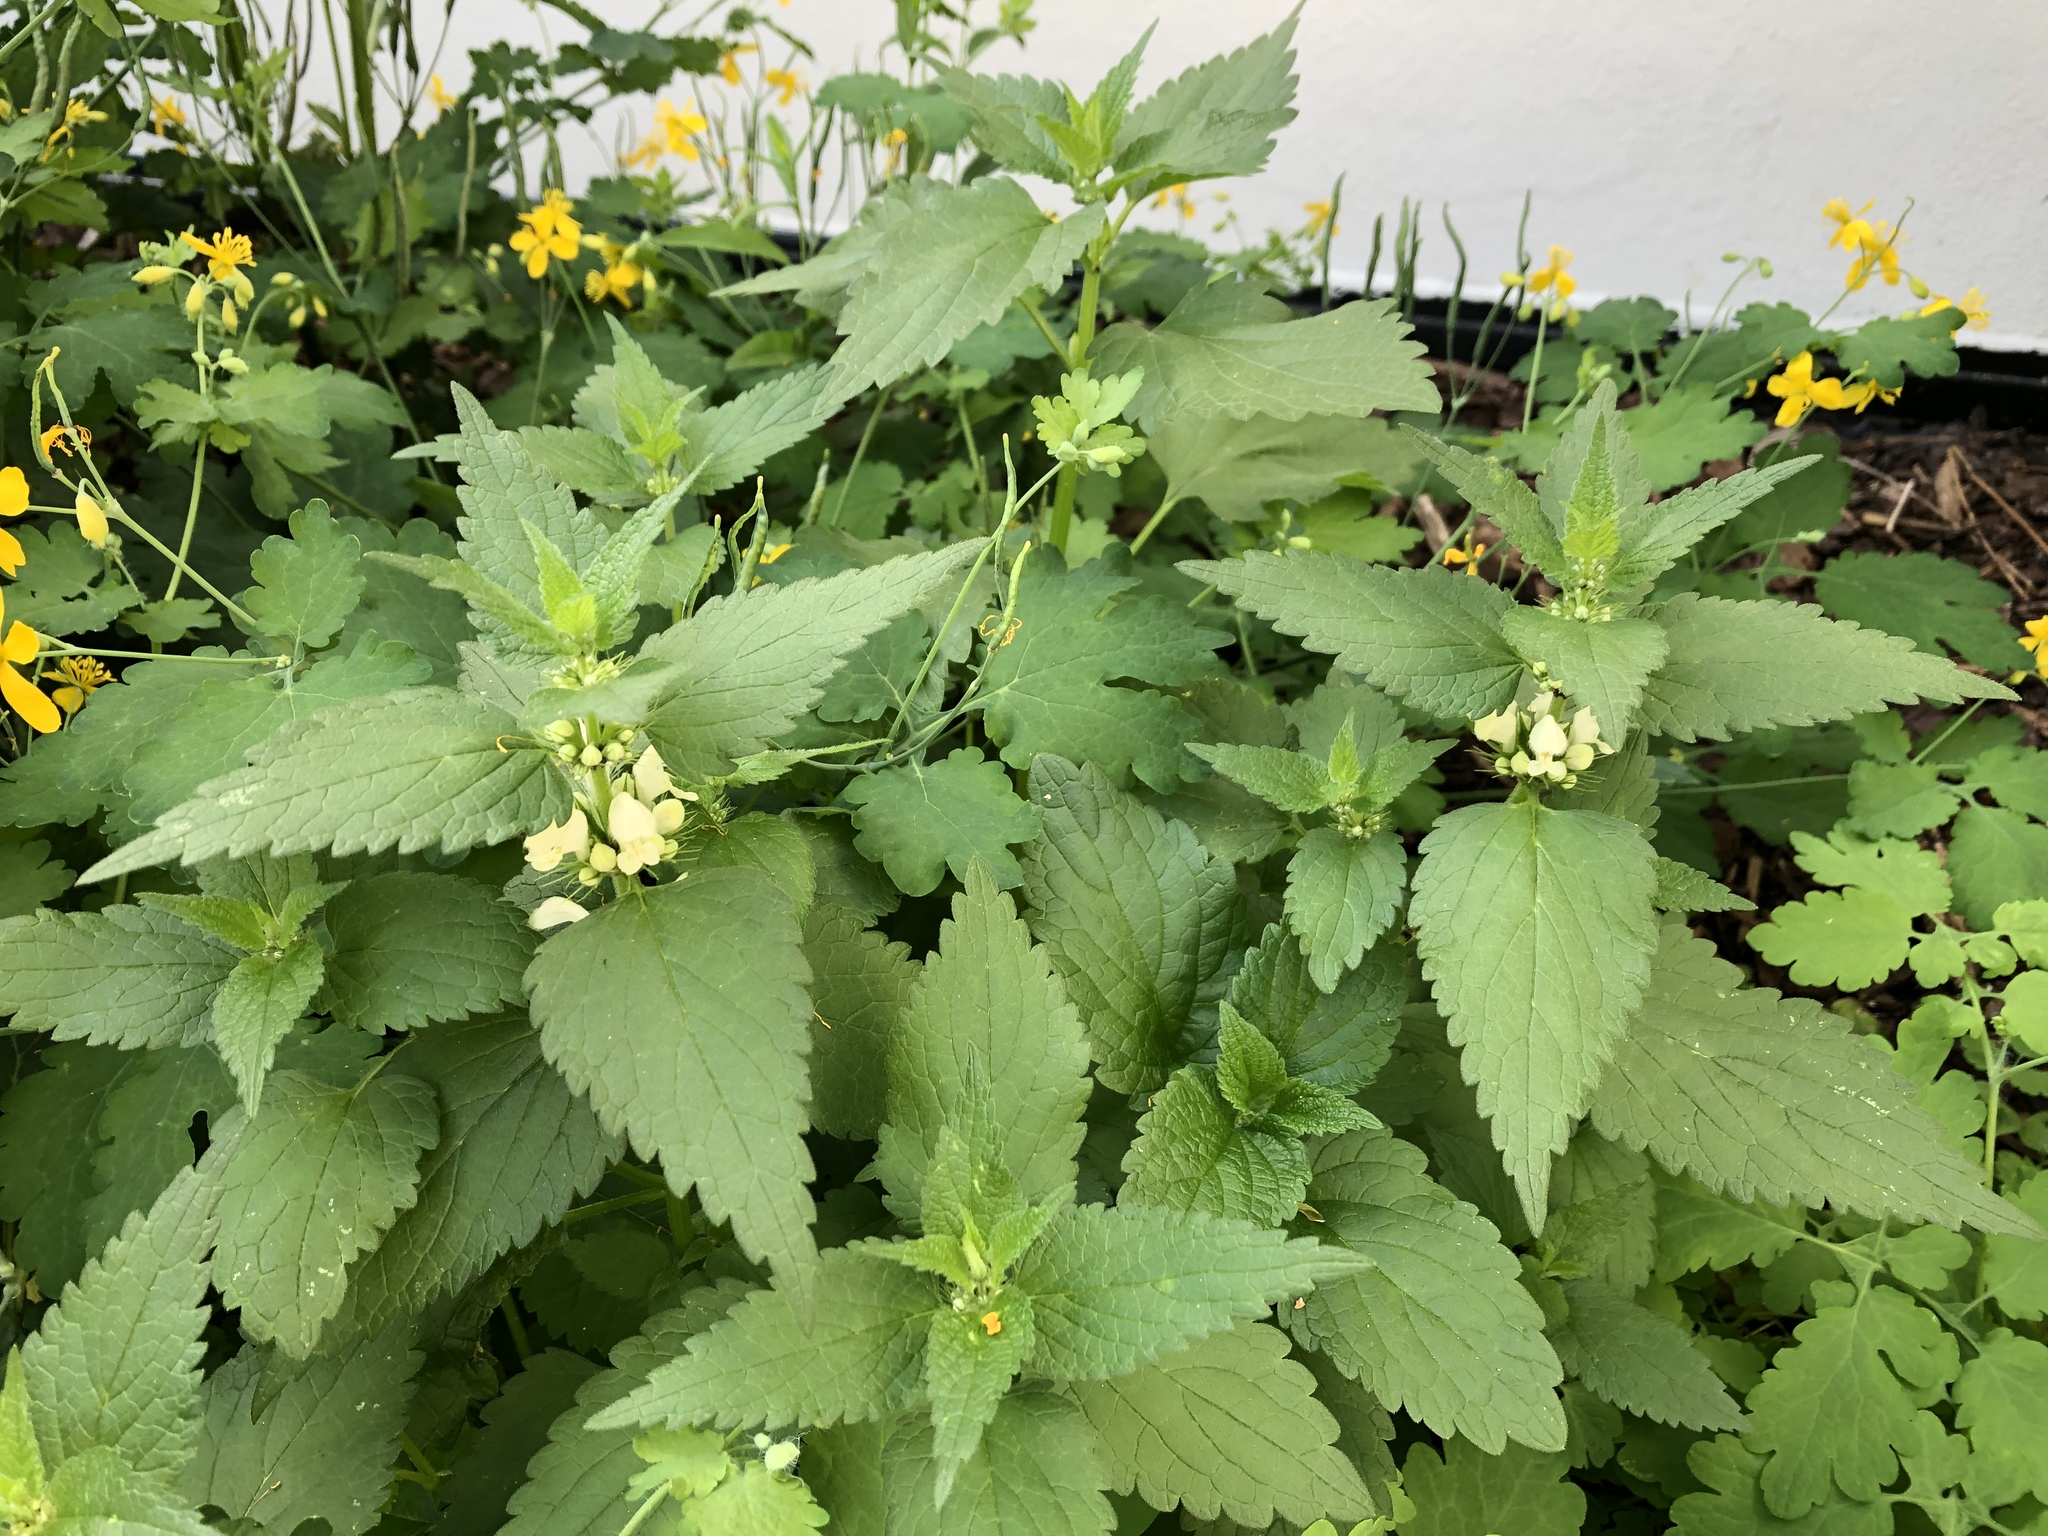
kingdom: Plantae
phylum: Tracheophyta
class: Magnoliopsida
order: Lamiales
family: Lamiaceae
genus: Lamium
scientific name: Lamium album
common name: White dead-nettle
